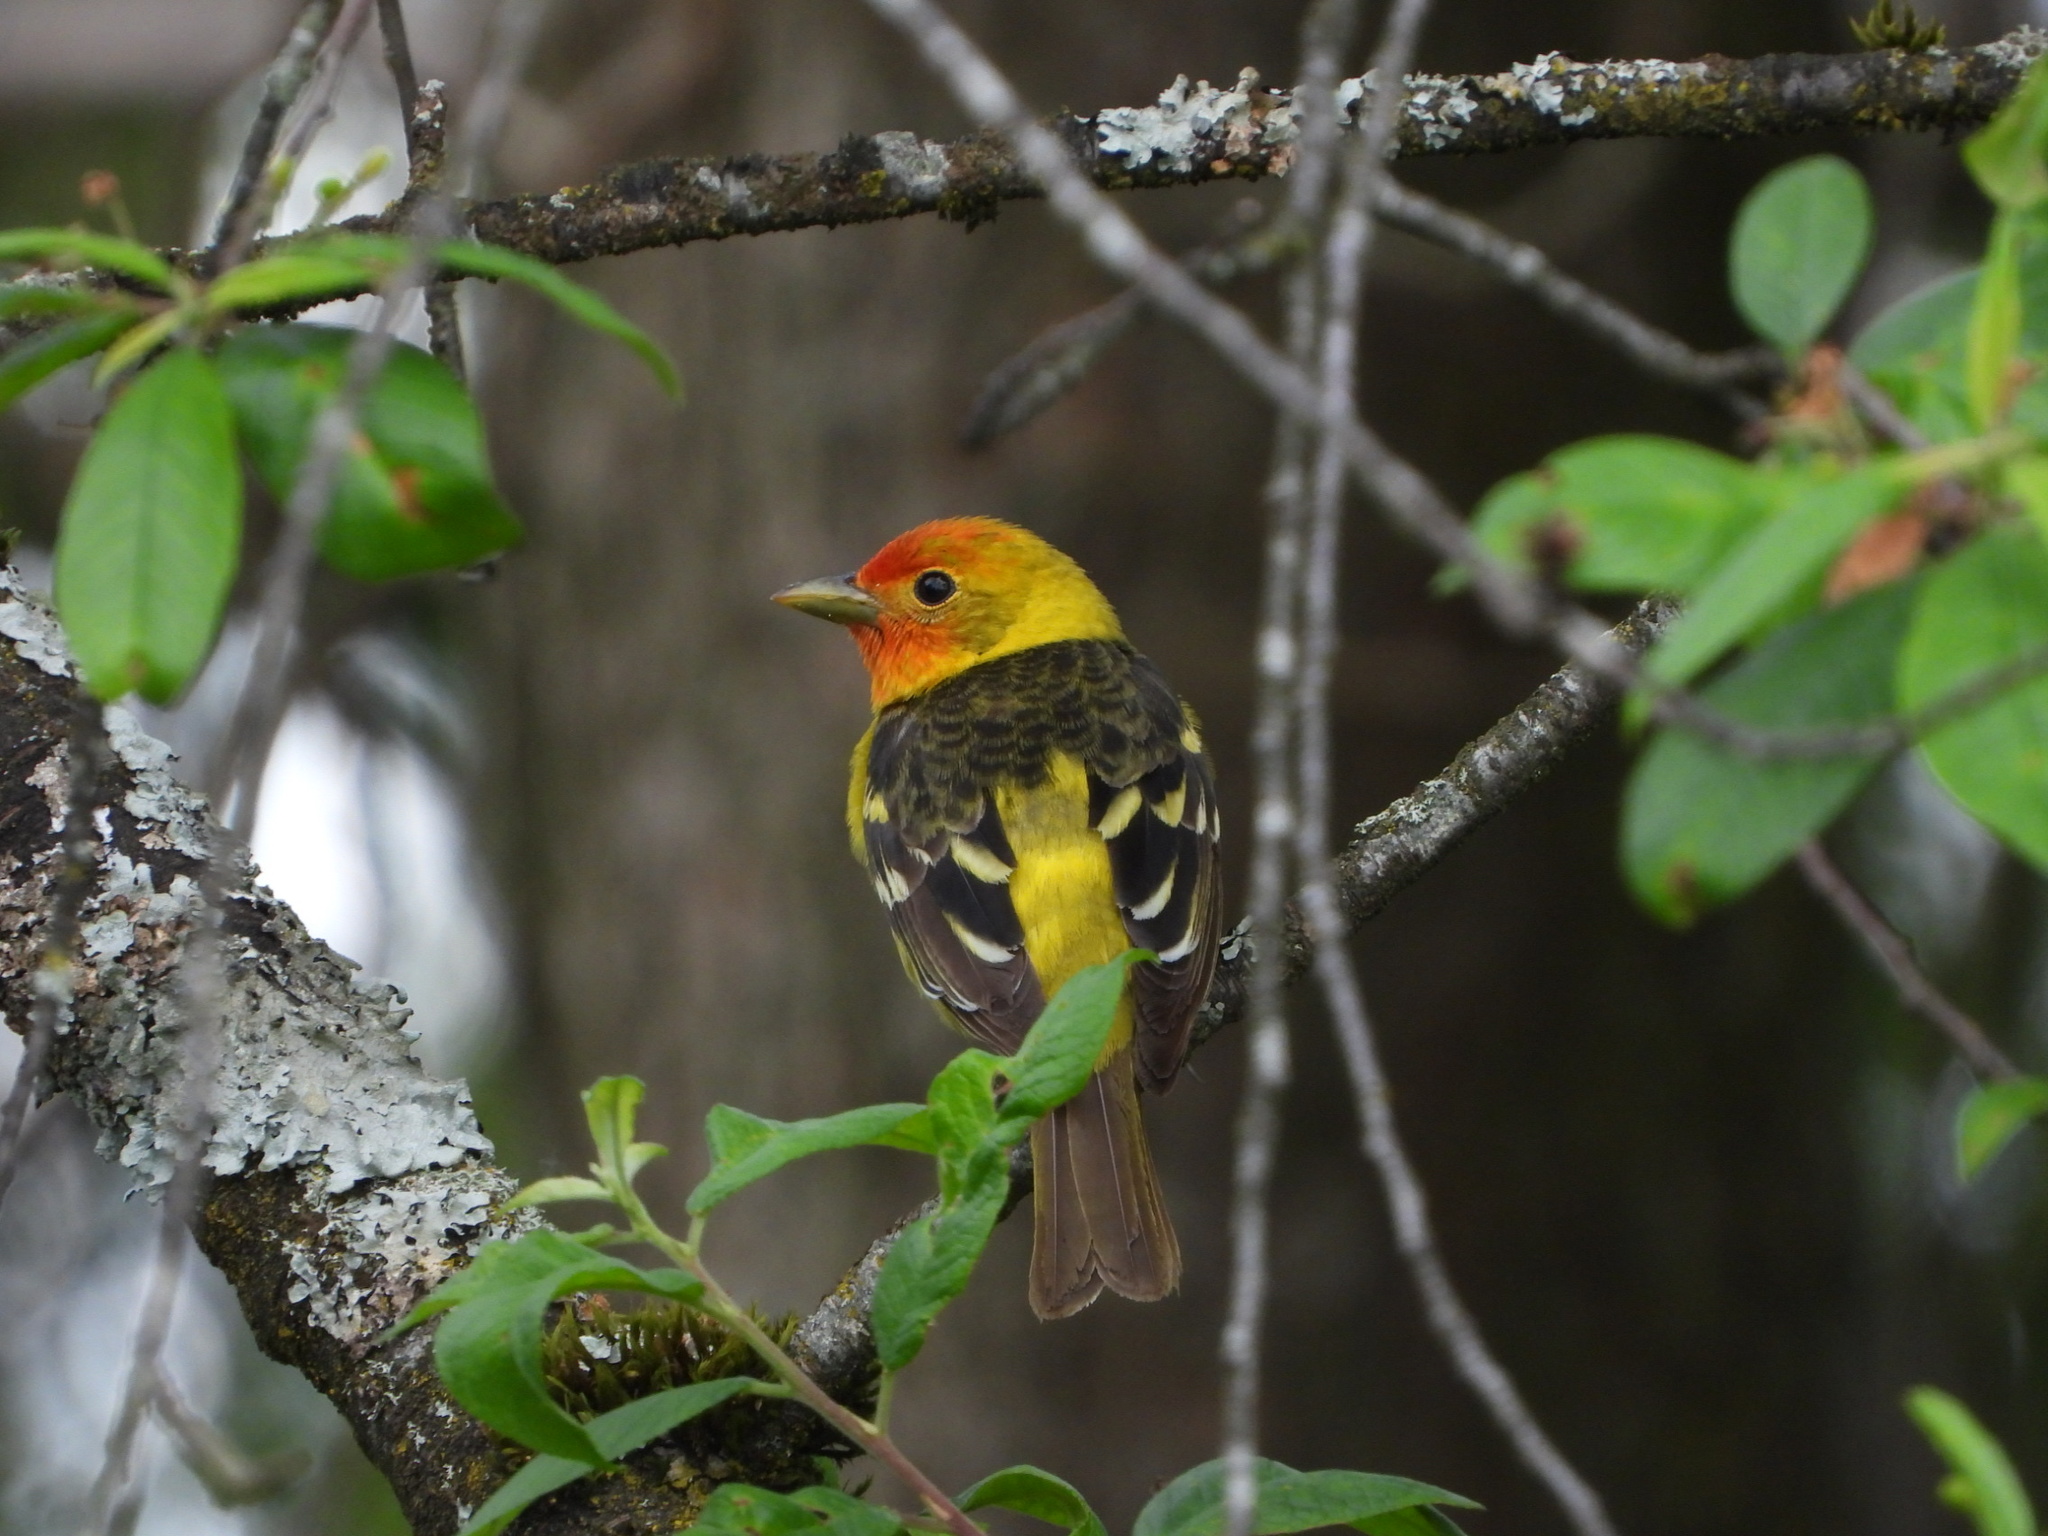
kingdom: Animalia
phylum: Chordata
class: Aves
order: Passeriformes
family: Cardinalidae
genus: Piranga
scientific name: Piranga ludoviciana
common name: Western tanager
